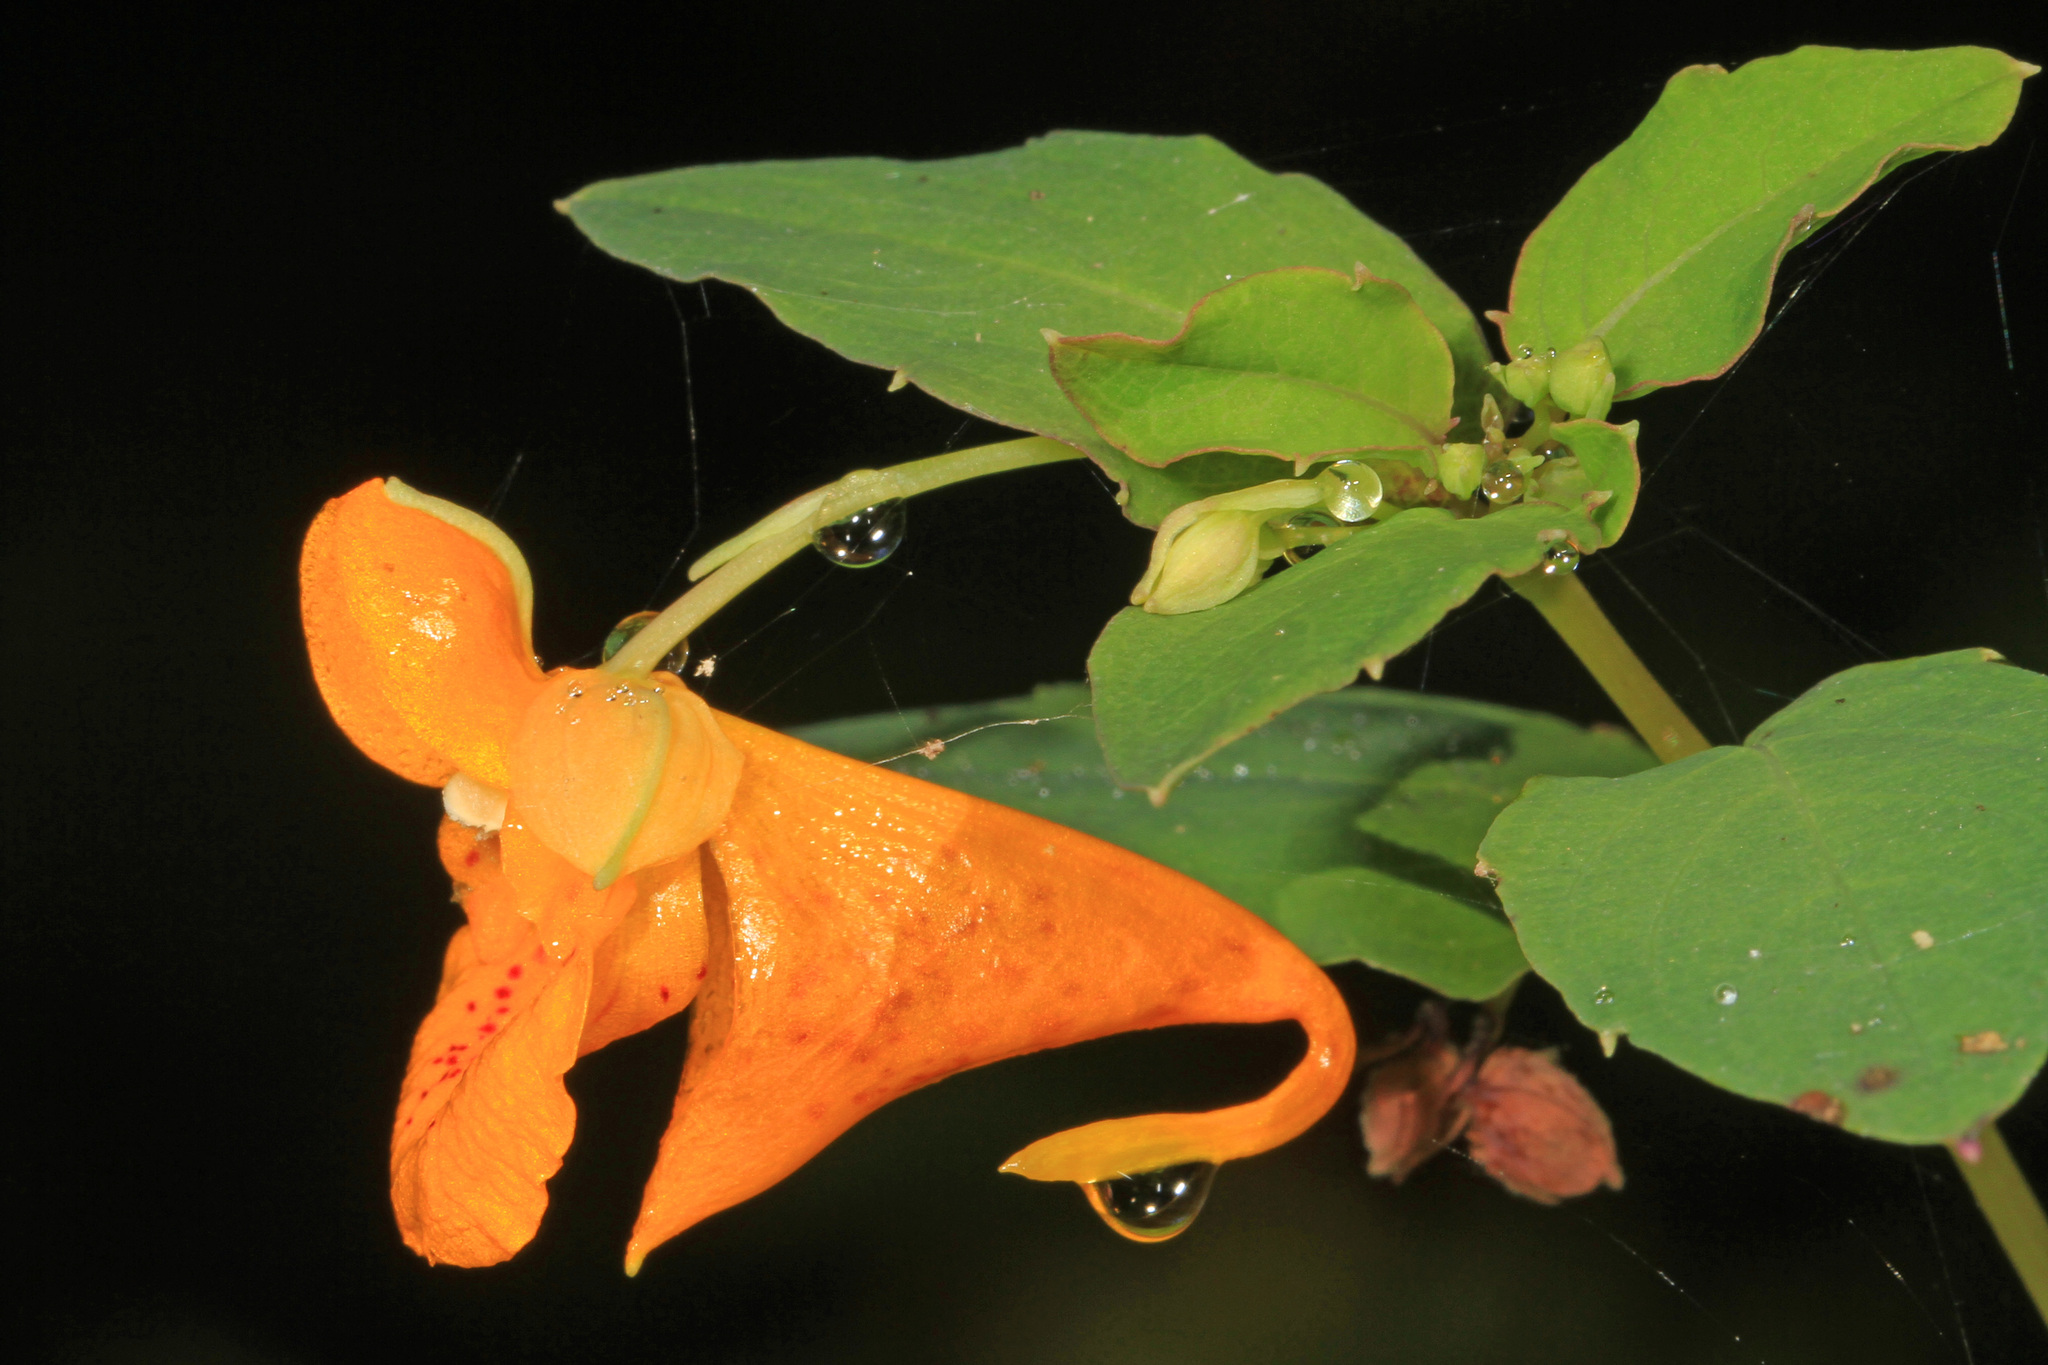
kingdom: Plantae
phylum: Tracheophyta
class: Magnoliopsida
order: Ericales
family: Balsaminaceae
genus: Impatiens
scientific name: Impatiens capensis
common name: Orange balsam
